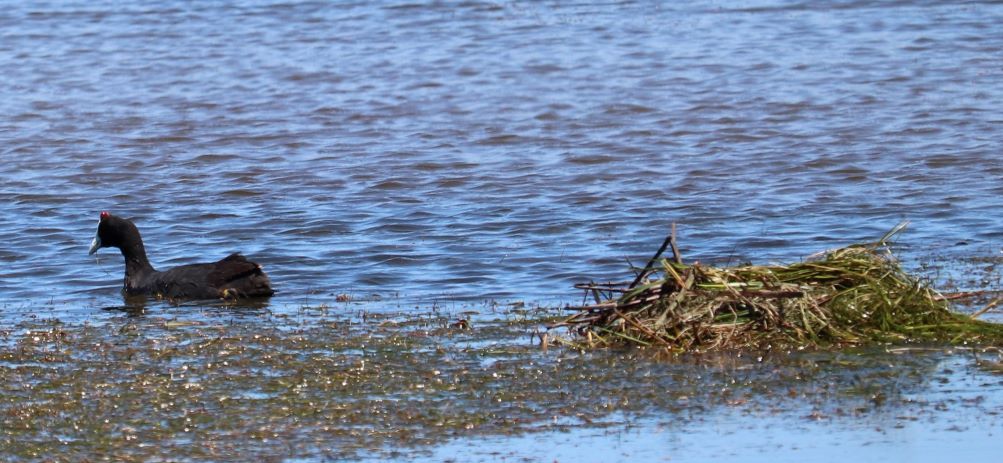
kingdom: Animalia
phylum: Chordata
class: Aves
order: Gruiformes
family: Rallidae
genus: Fulica
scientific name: Fulica cristata
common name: Red-knobbed coot
